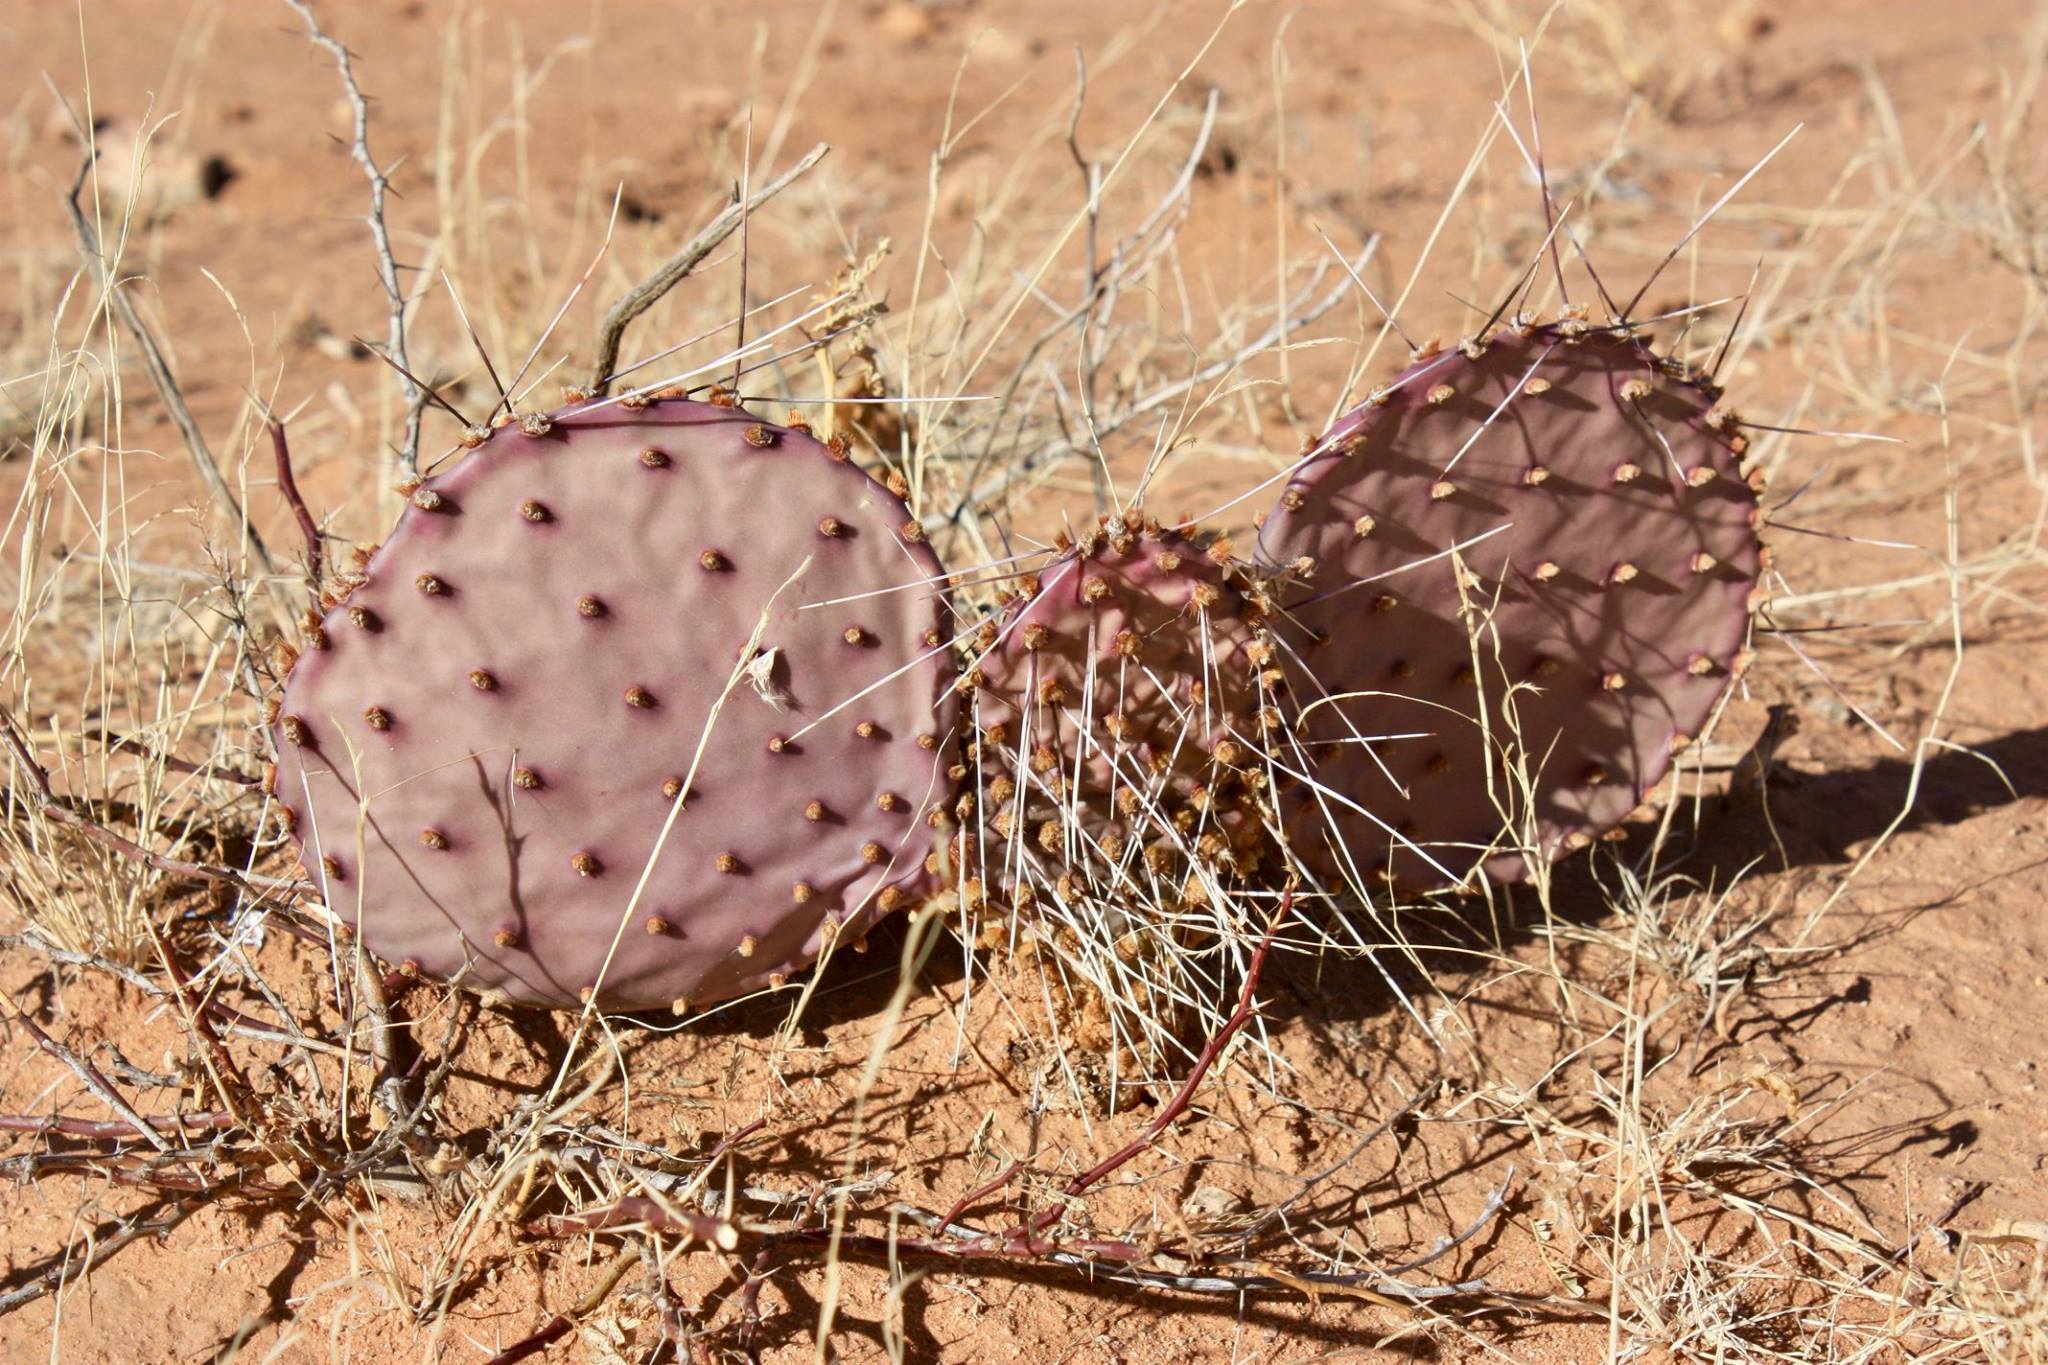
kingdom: Plantae
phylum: Tracheophyta
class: Magnoliopsida
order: Caryophyllales
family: Cactaceae
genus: Opuntia
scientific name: Opuntia macrocentra
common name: Purple prickly-pear
